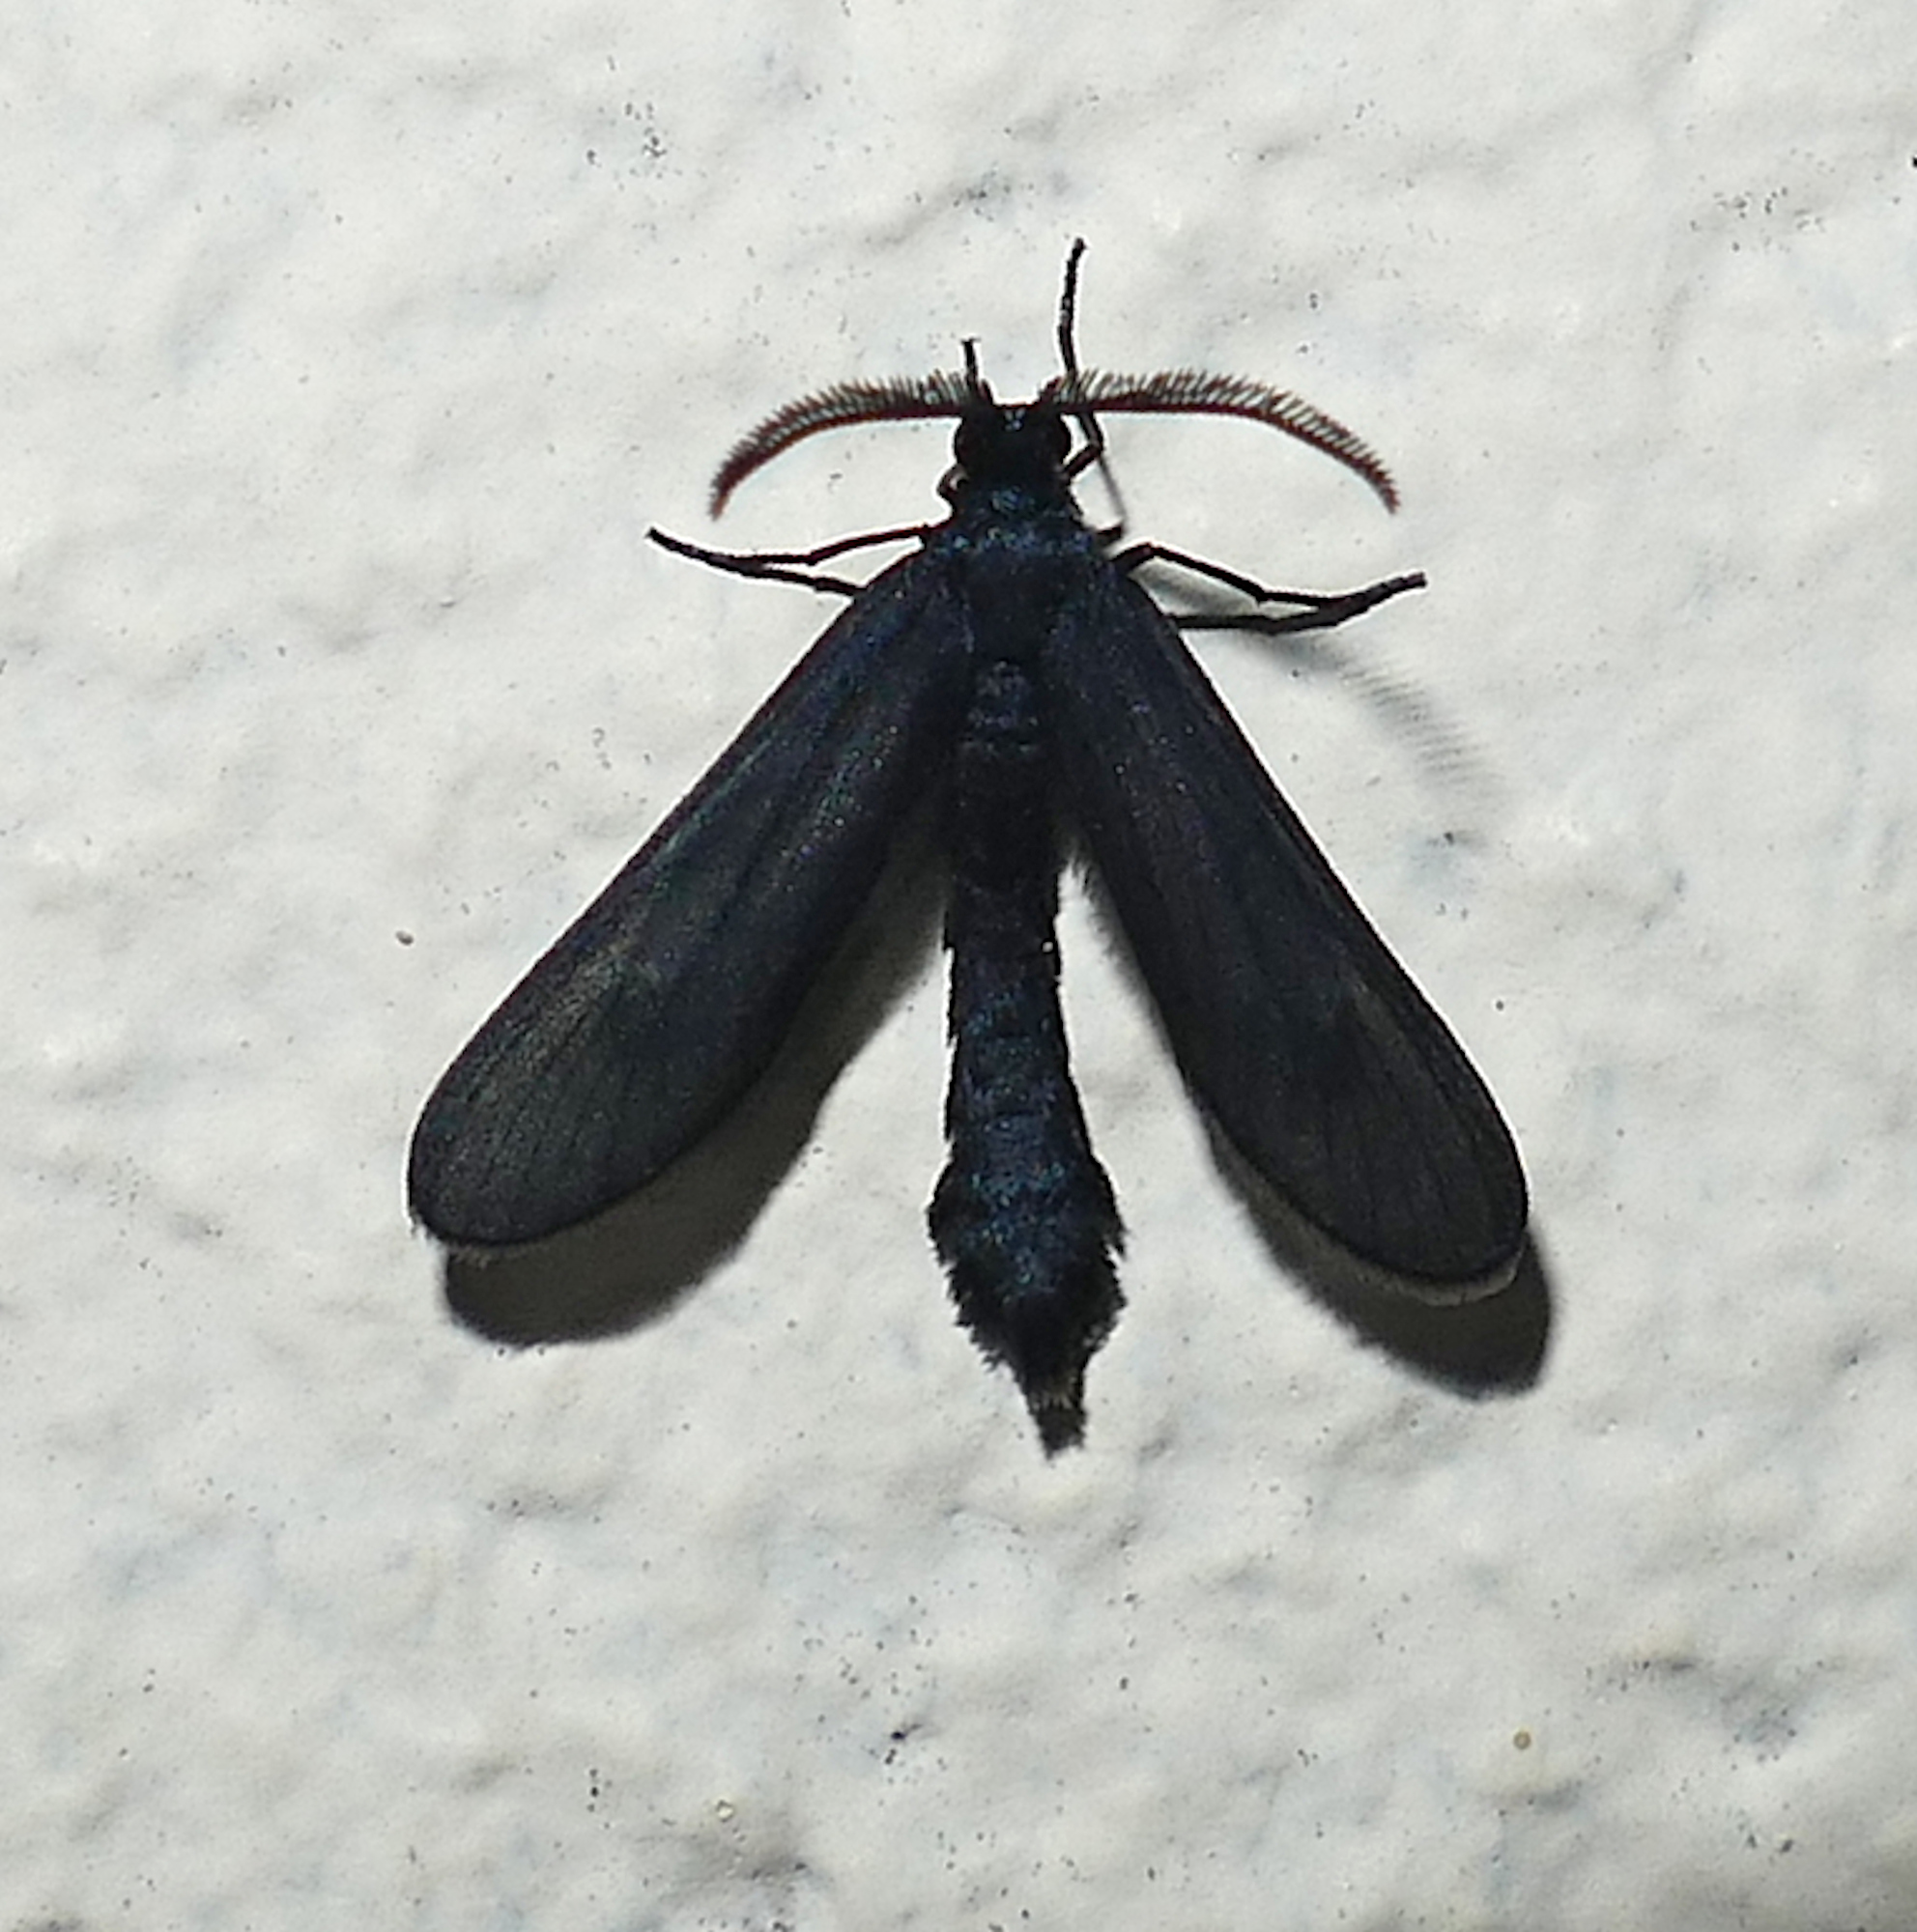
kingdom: Animalia
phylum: Arthropoda
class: Insecta
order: Lepidoptera
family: Zygaenidae
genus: Harrisina
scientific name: Harrisina coracina
